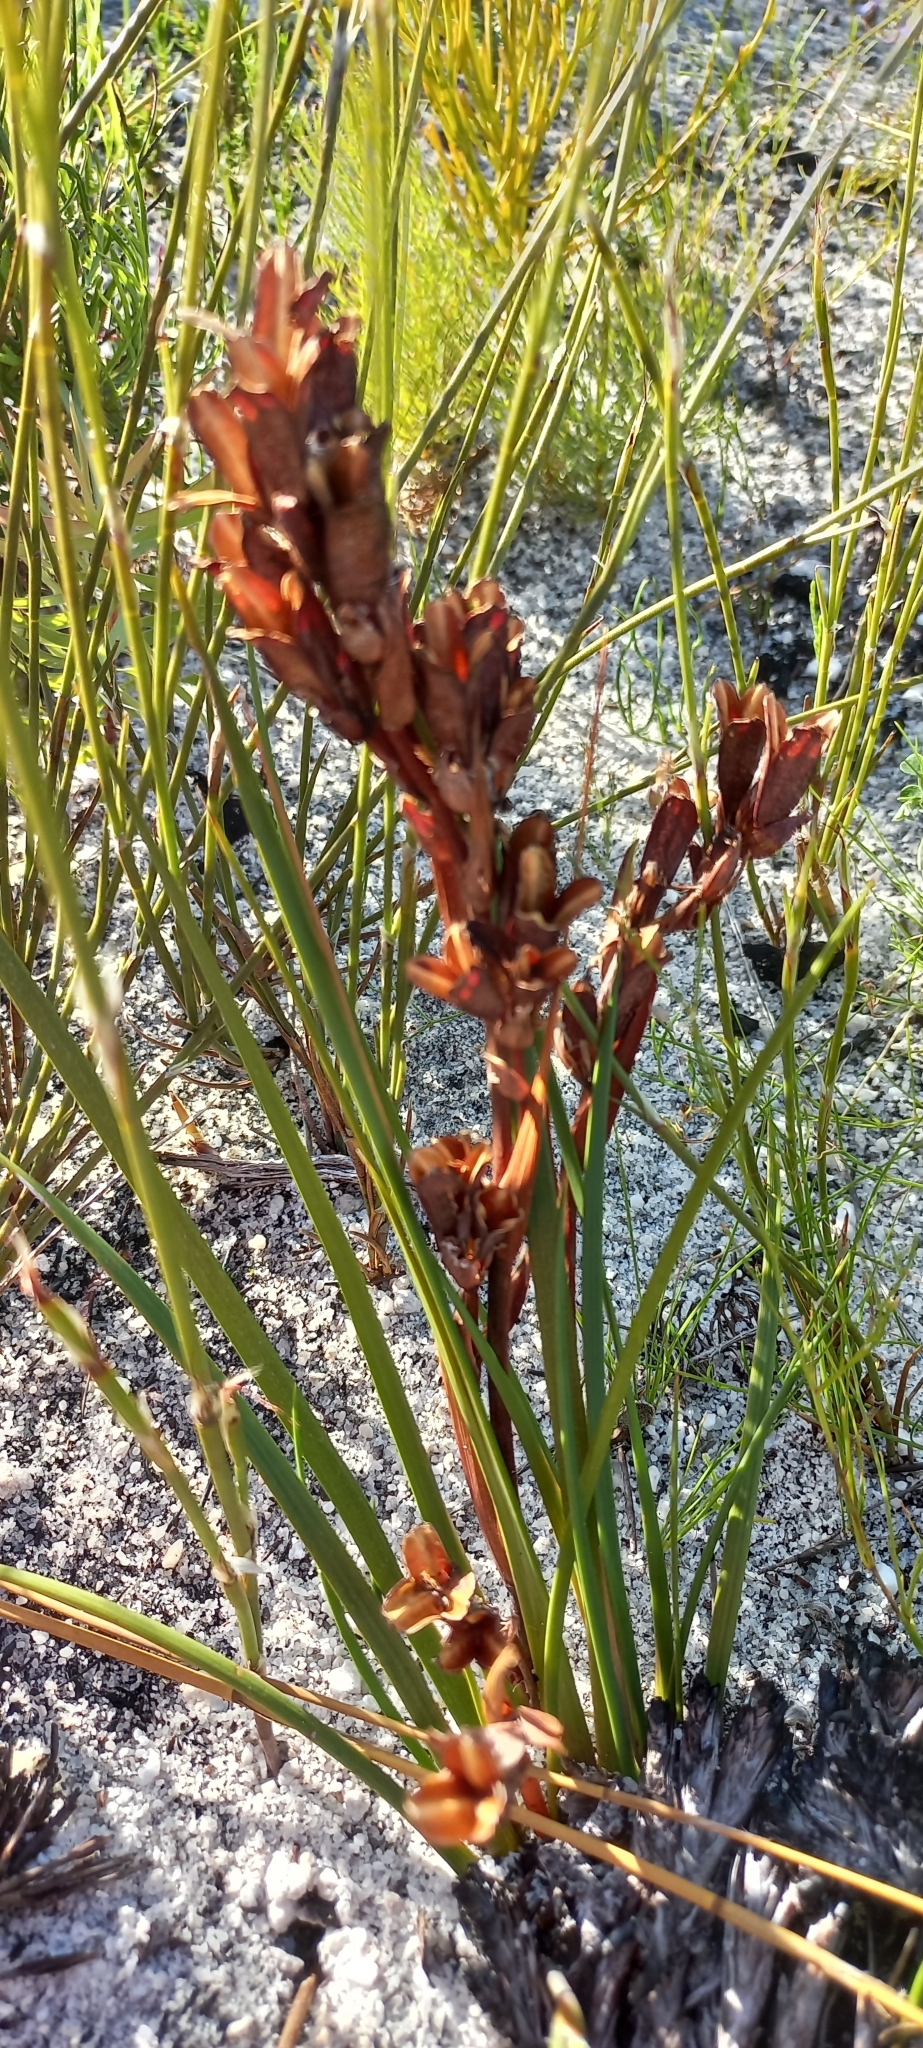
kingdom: Plantae
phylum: Tracheophyta
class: Liliopsida
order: Asparagales
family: Iridaceae
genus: Aristea
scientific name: Aristea juncifolia
